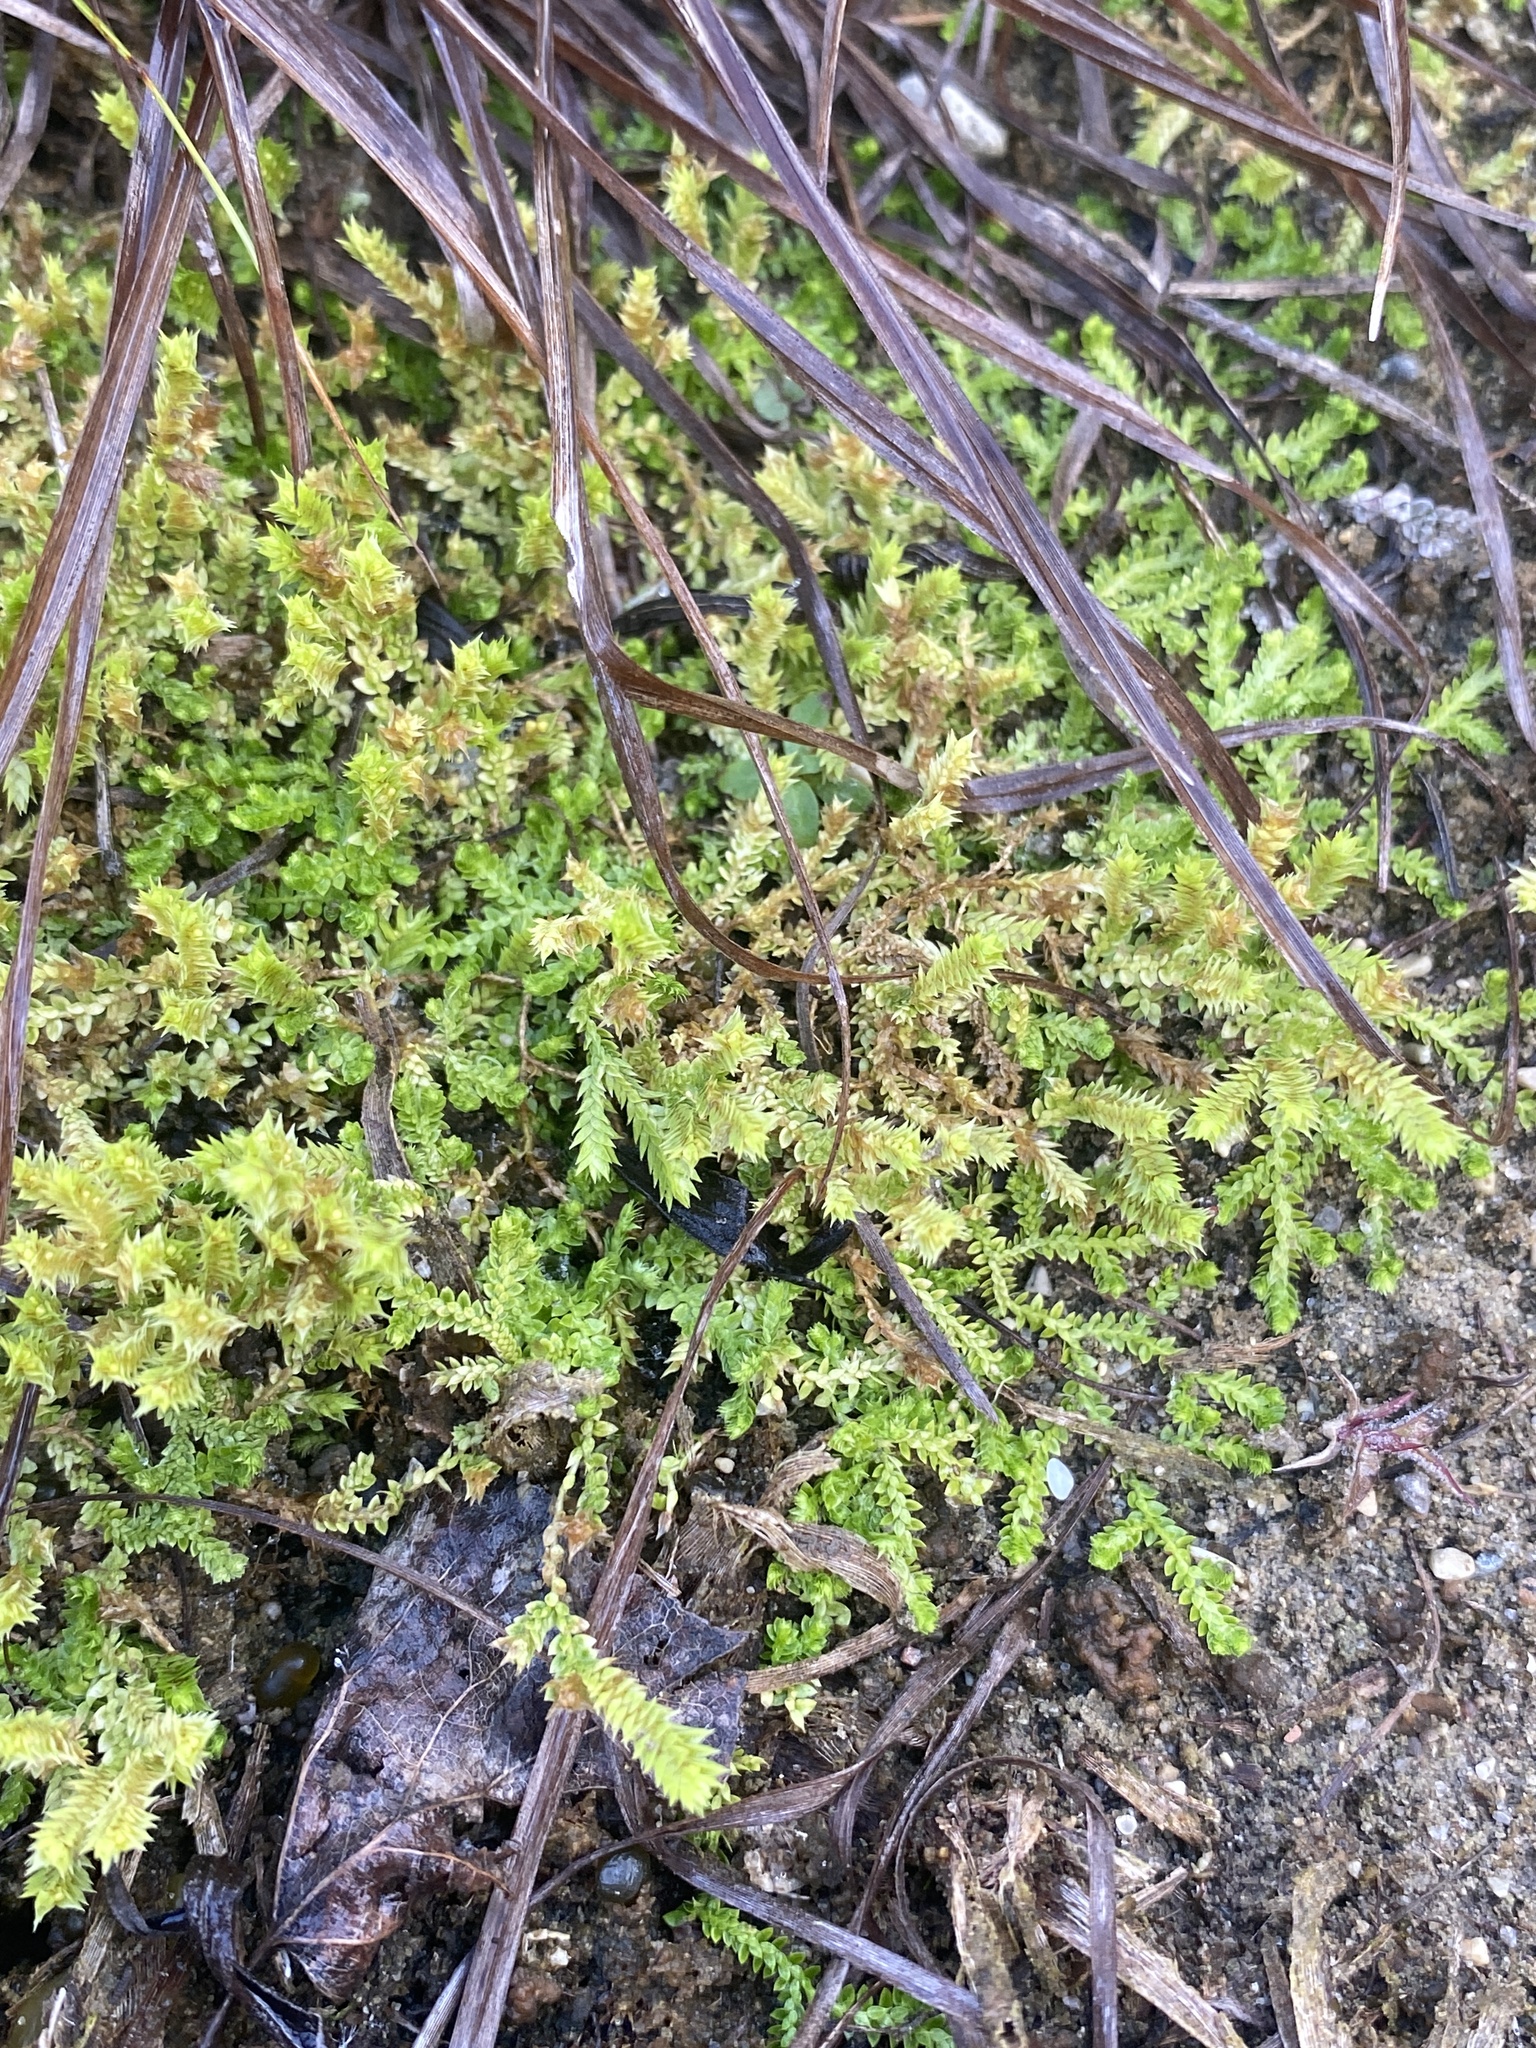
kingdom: Plantae
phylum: Tracheophyta
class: Lycopodiopsida
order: Selaginellales
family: Selaginellaceae
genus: Selaginella
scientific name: Selaginella eclipes
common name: Buck's meadow spikemoss
